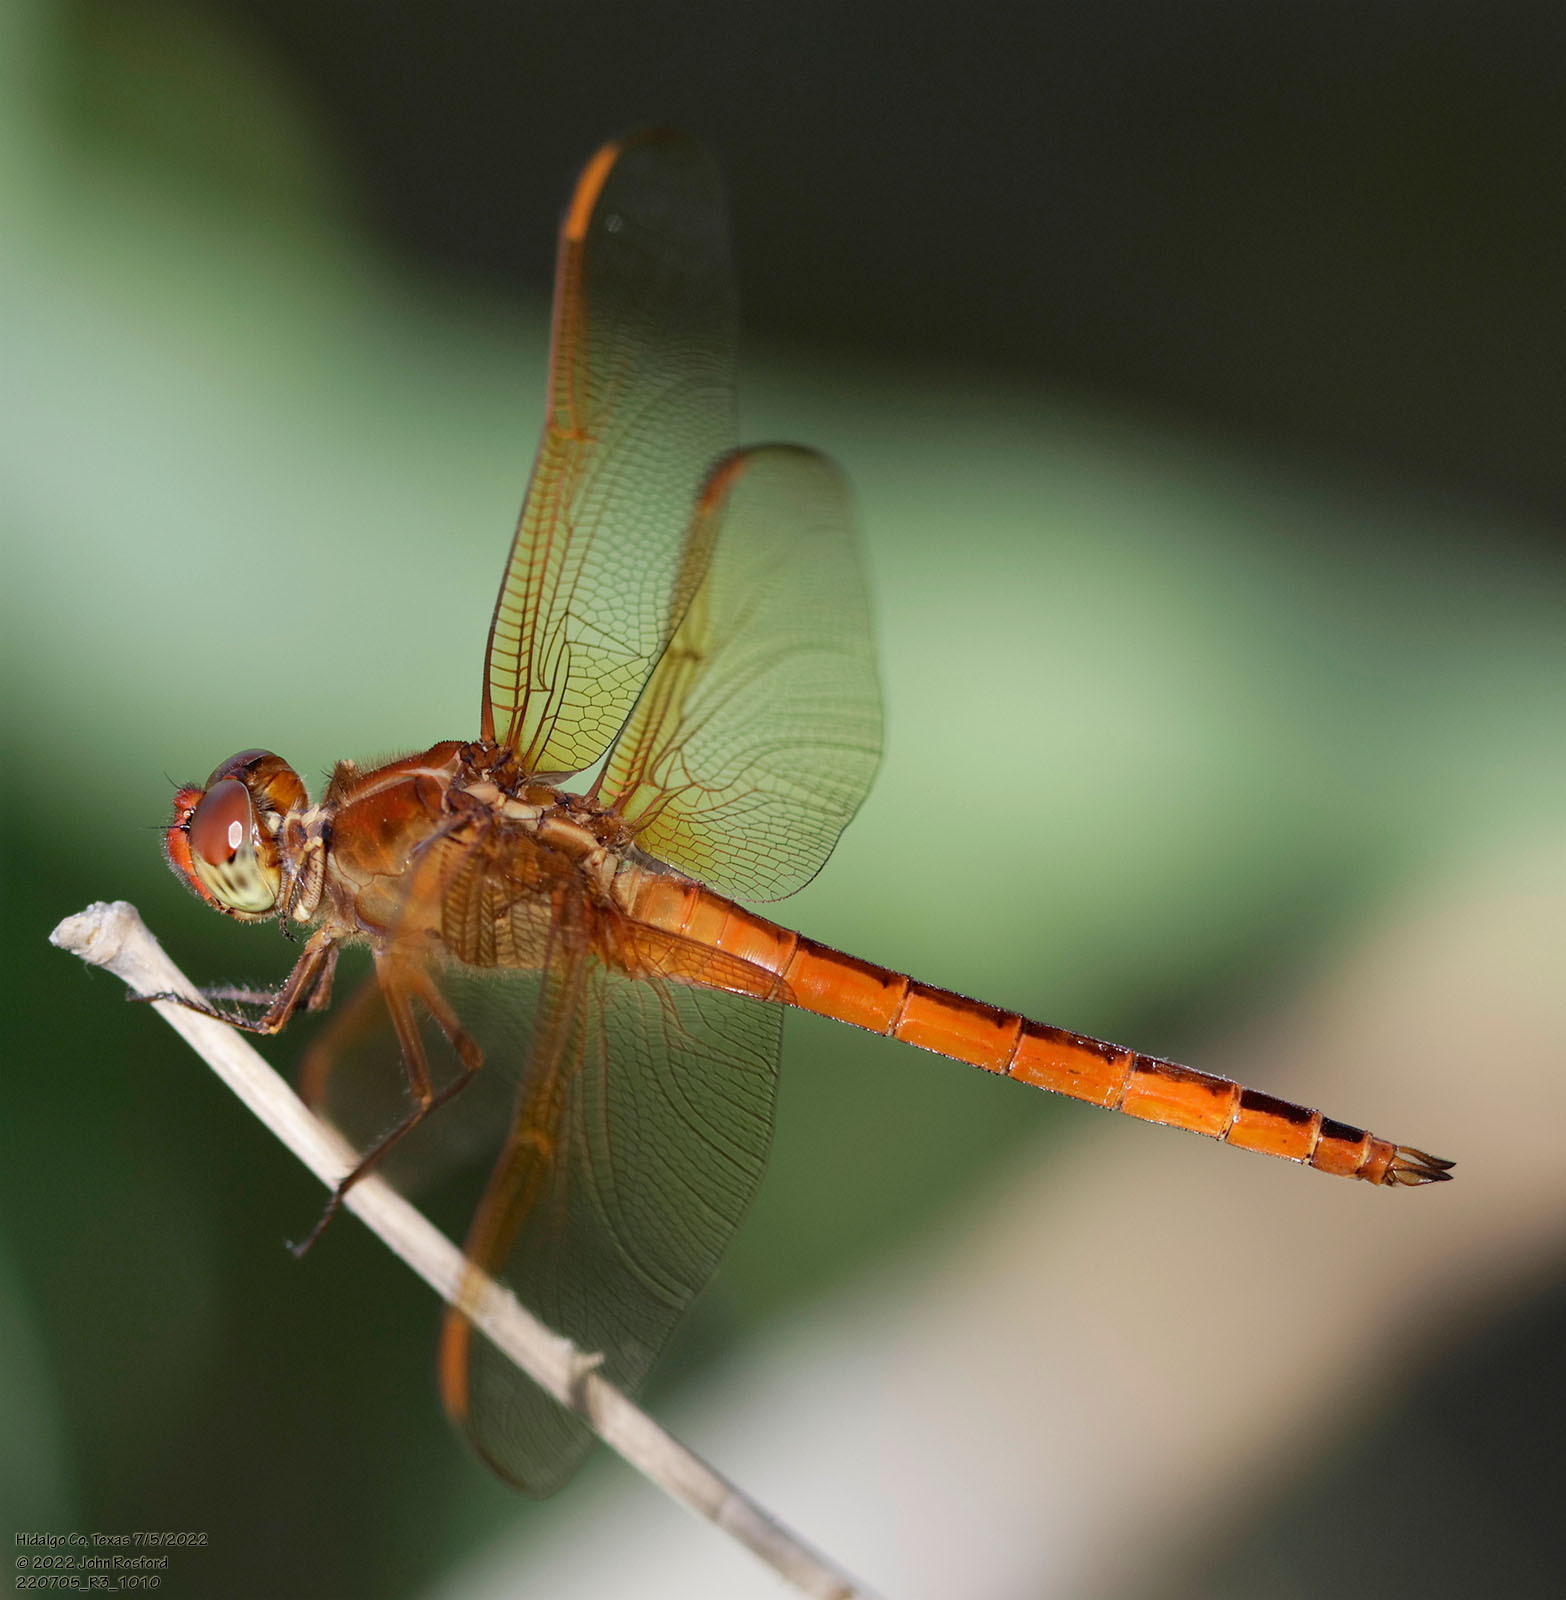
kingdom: Animalia
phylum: Arthropoda
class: Insecta
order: Odonata
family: Libellulidae
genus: Libellula
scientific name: Libellula needhami
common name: Needham's skimmer
